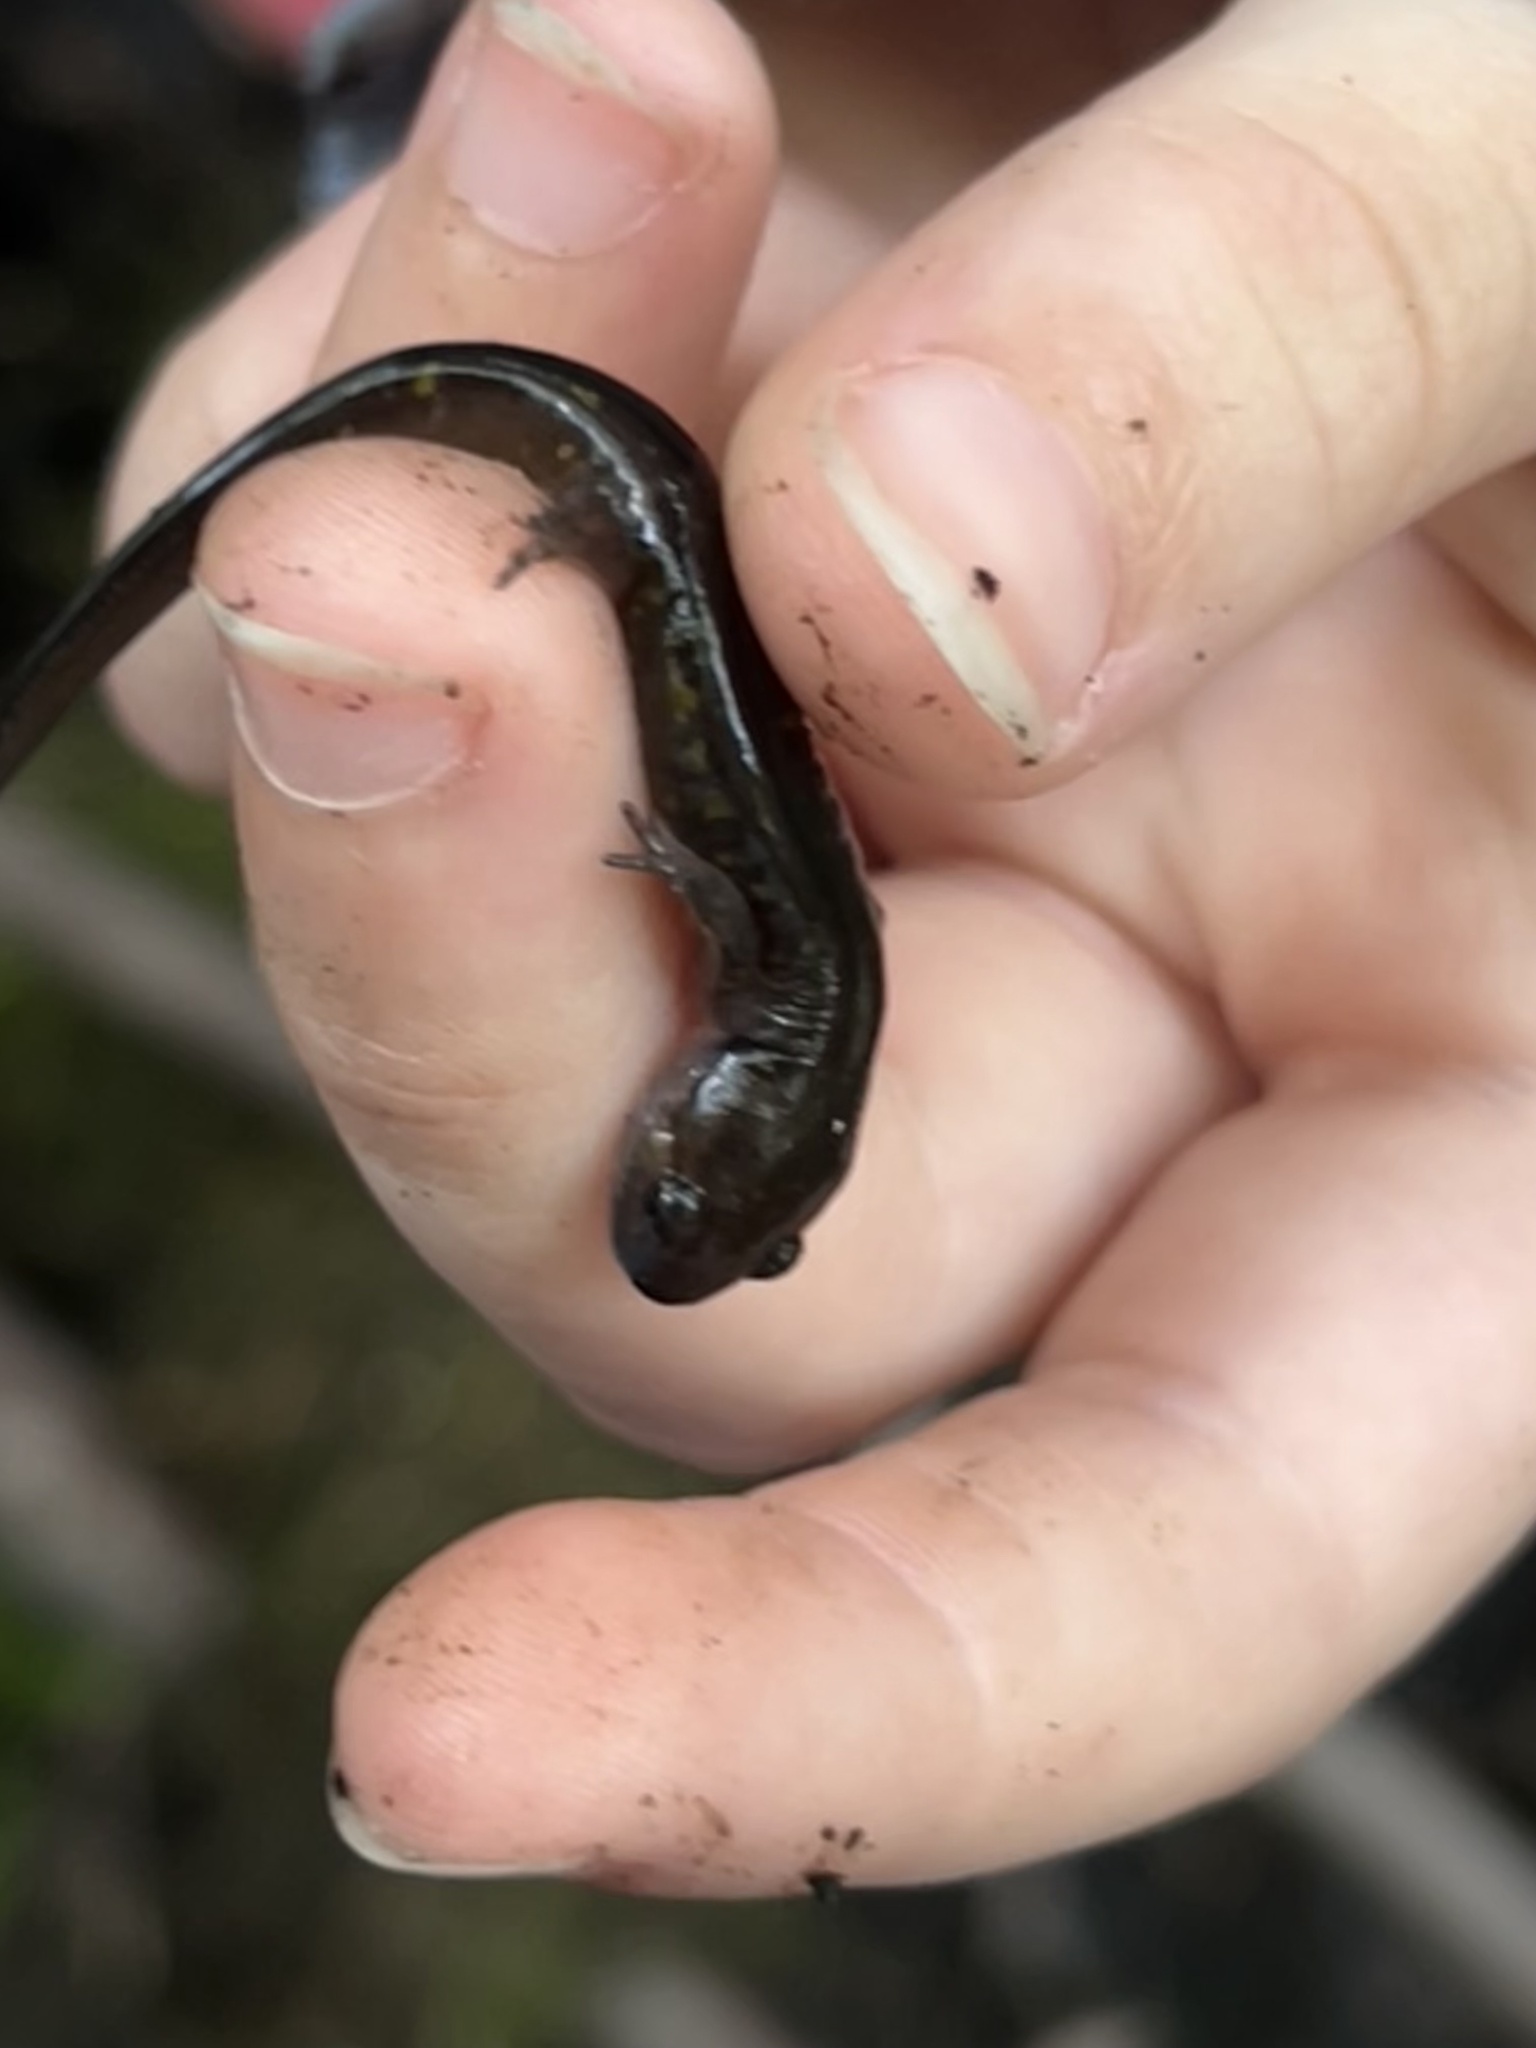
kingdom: Animalia
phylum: Chordata
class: Amphibia
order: Caudata
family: Ambystomatidae
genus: Ambystoma
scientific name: Ambystoma maculatum
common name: Spotted salamander
